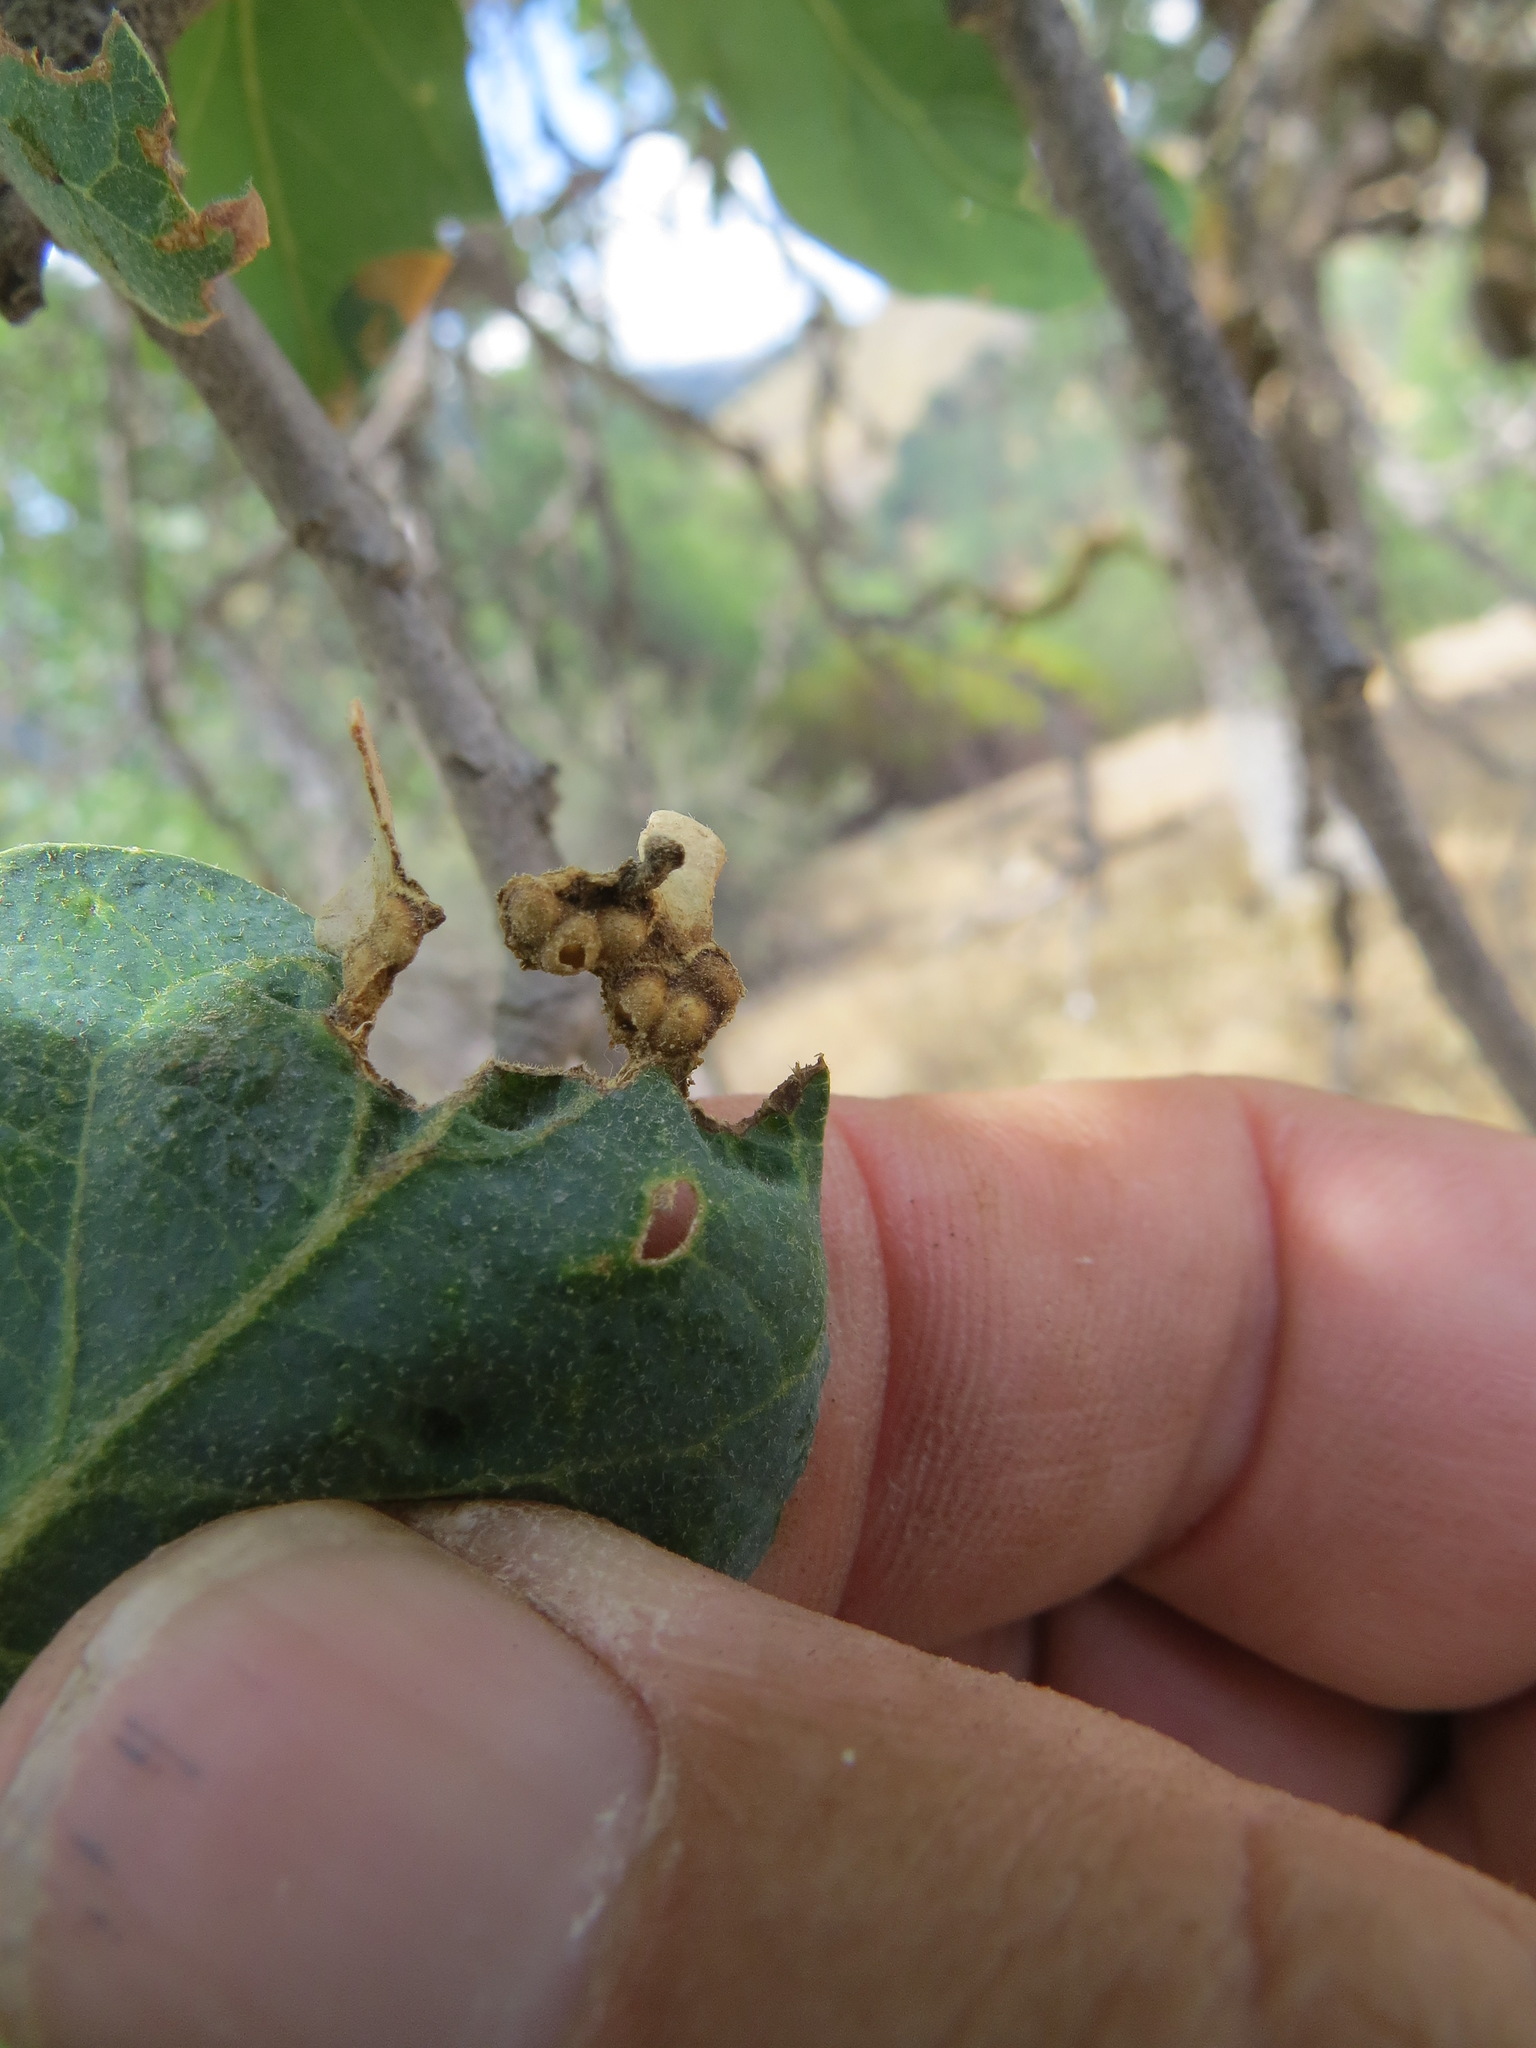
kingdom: Animalia
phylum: Arthropoda
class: Insecta
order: Hymenoptera
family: Cynipidae
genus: Neuroterus
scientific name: Neuroterus saltarius
